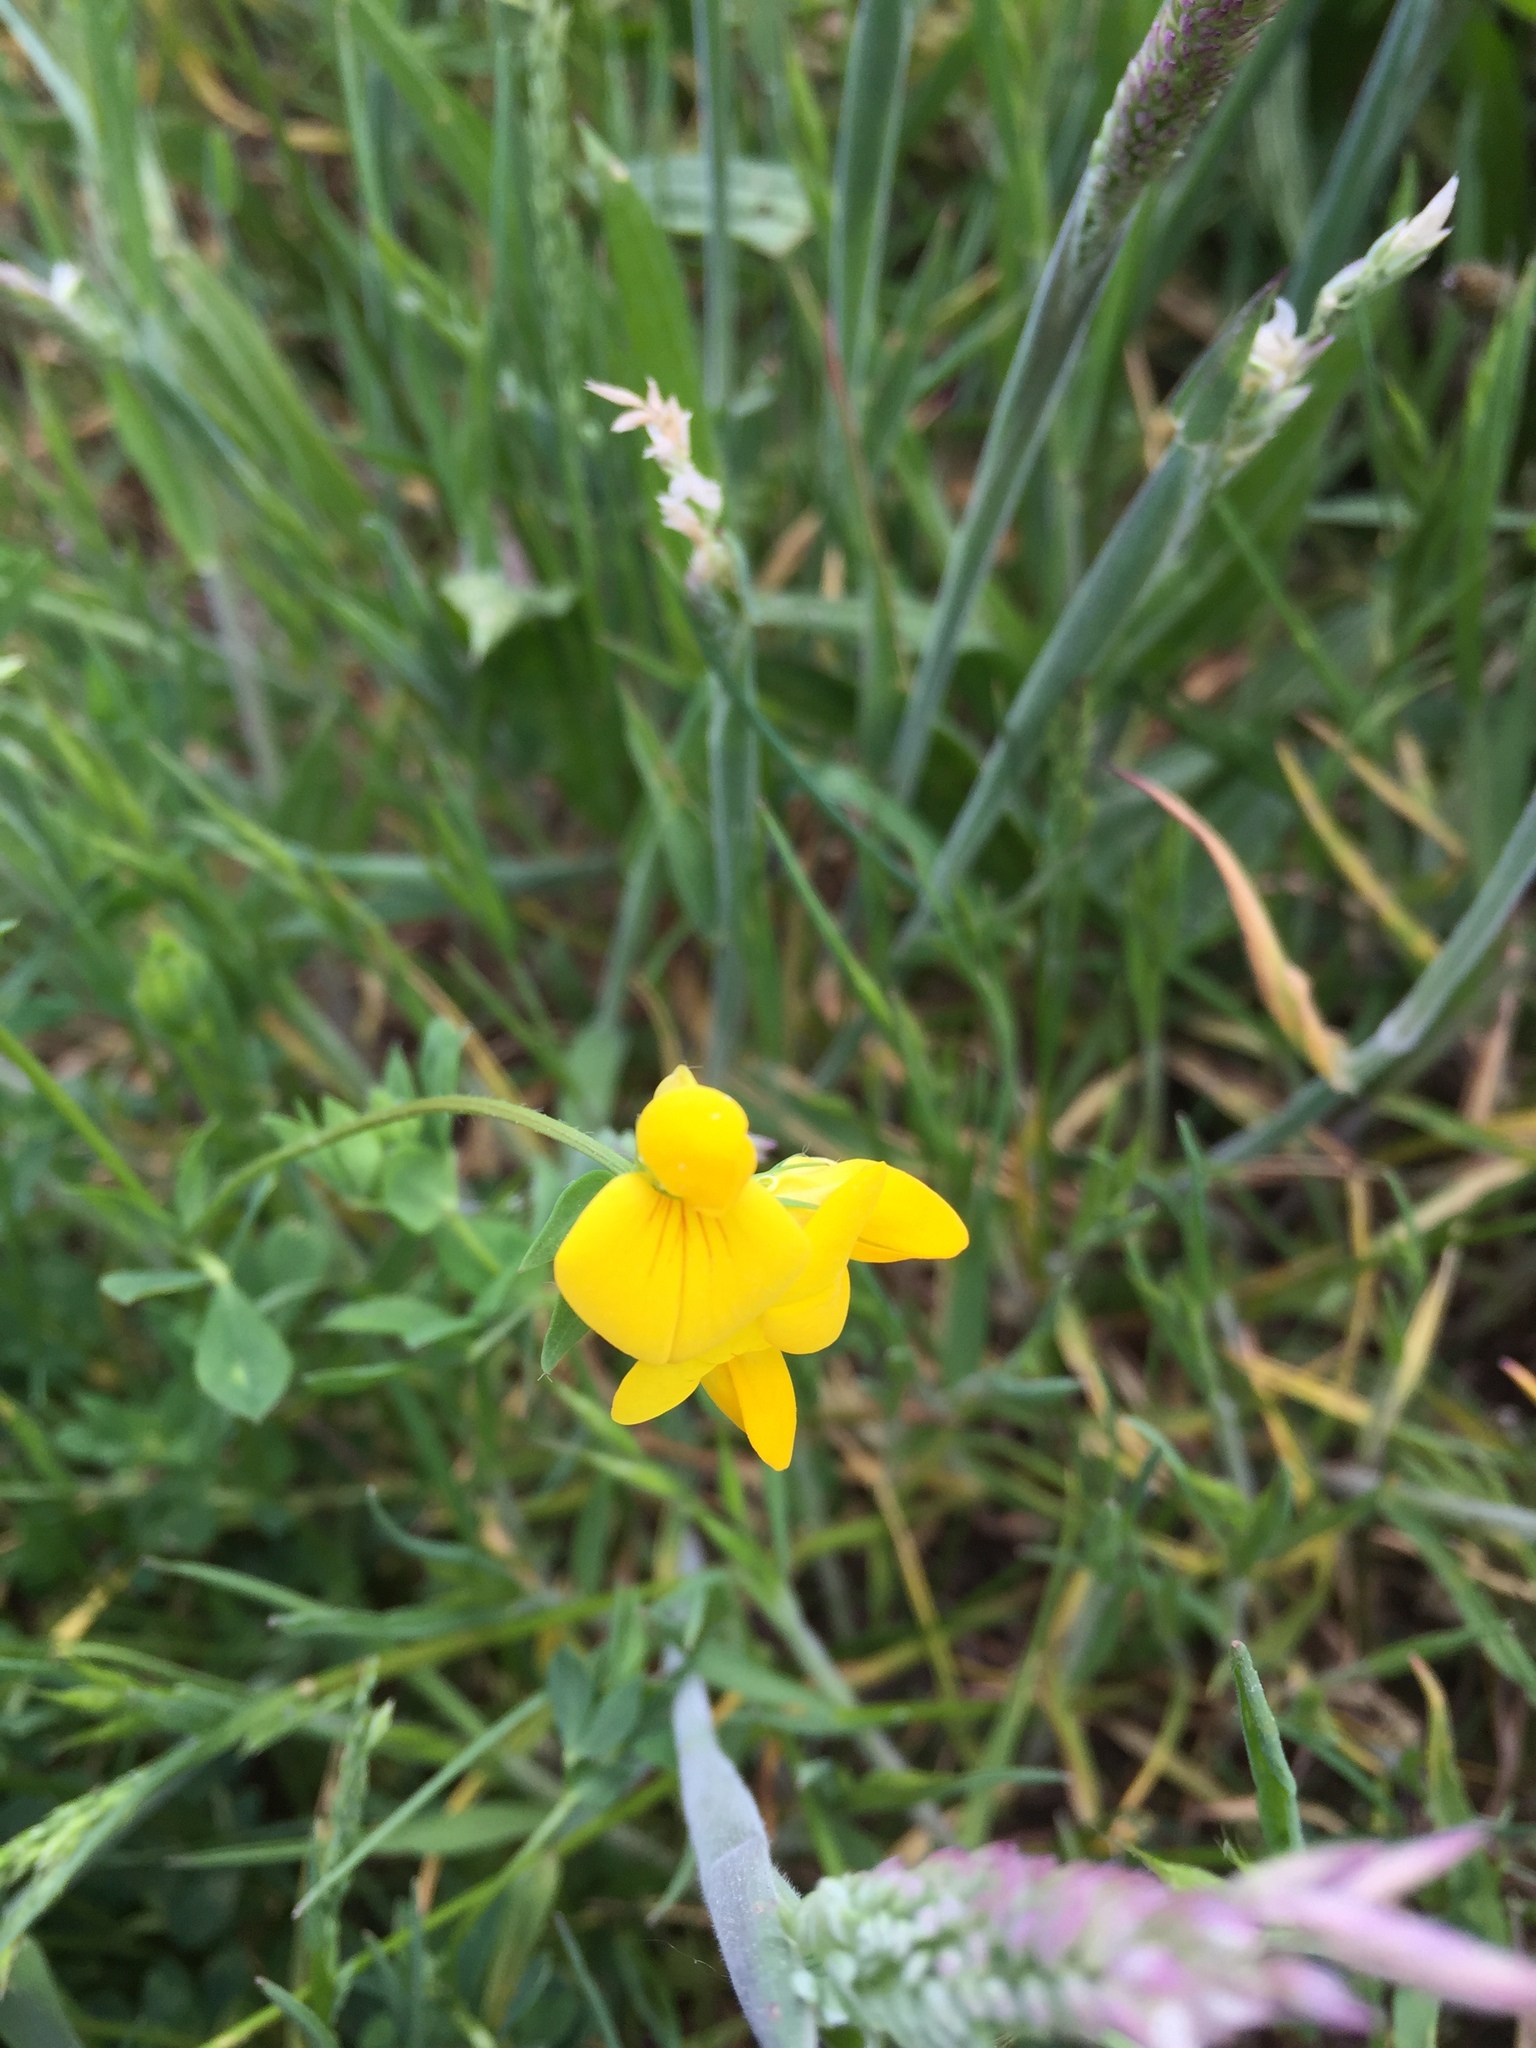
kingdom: Plantae
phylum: Tracheophyta
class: Magnoliopsida
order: Fabales
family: Fabaceae
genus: Lotus
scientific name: Lotus corniculatus
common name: Common bird's-foot-trefoil
